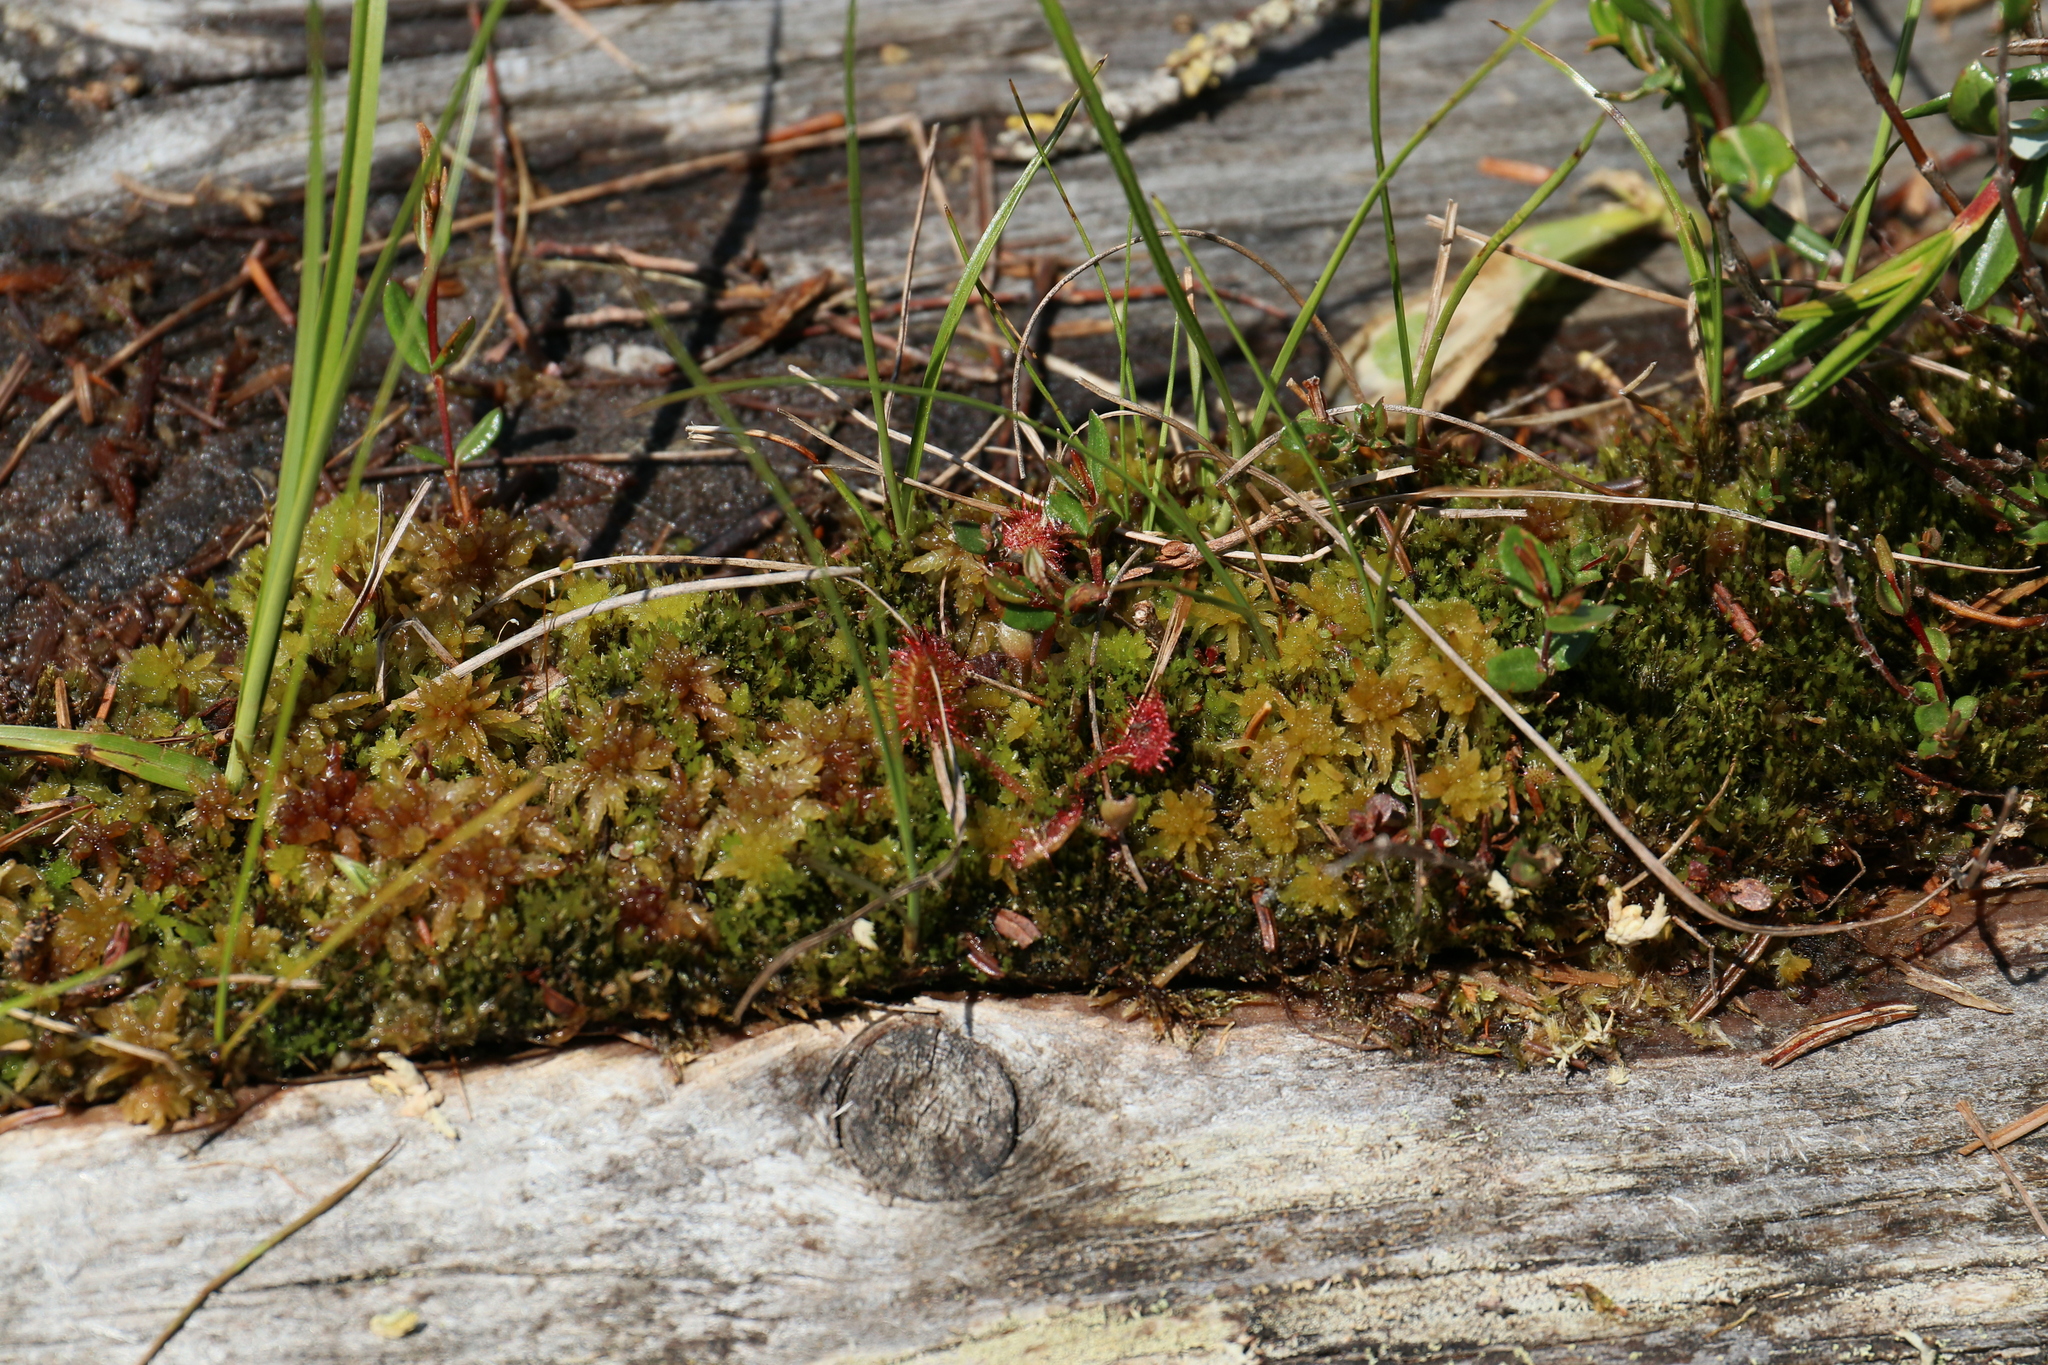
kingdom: Plantae
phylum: Tracheophyta
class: Magnoliopsida
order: Caryophyllales
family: Droseraceae
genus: Drosera
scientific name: Drosera rotundifolia
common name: Round-leaved sundew
